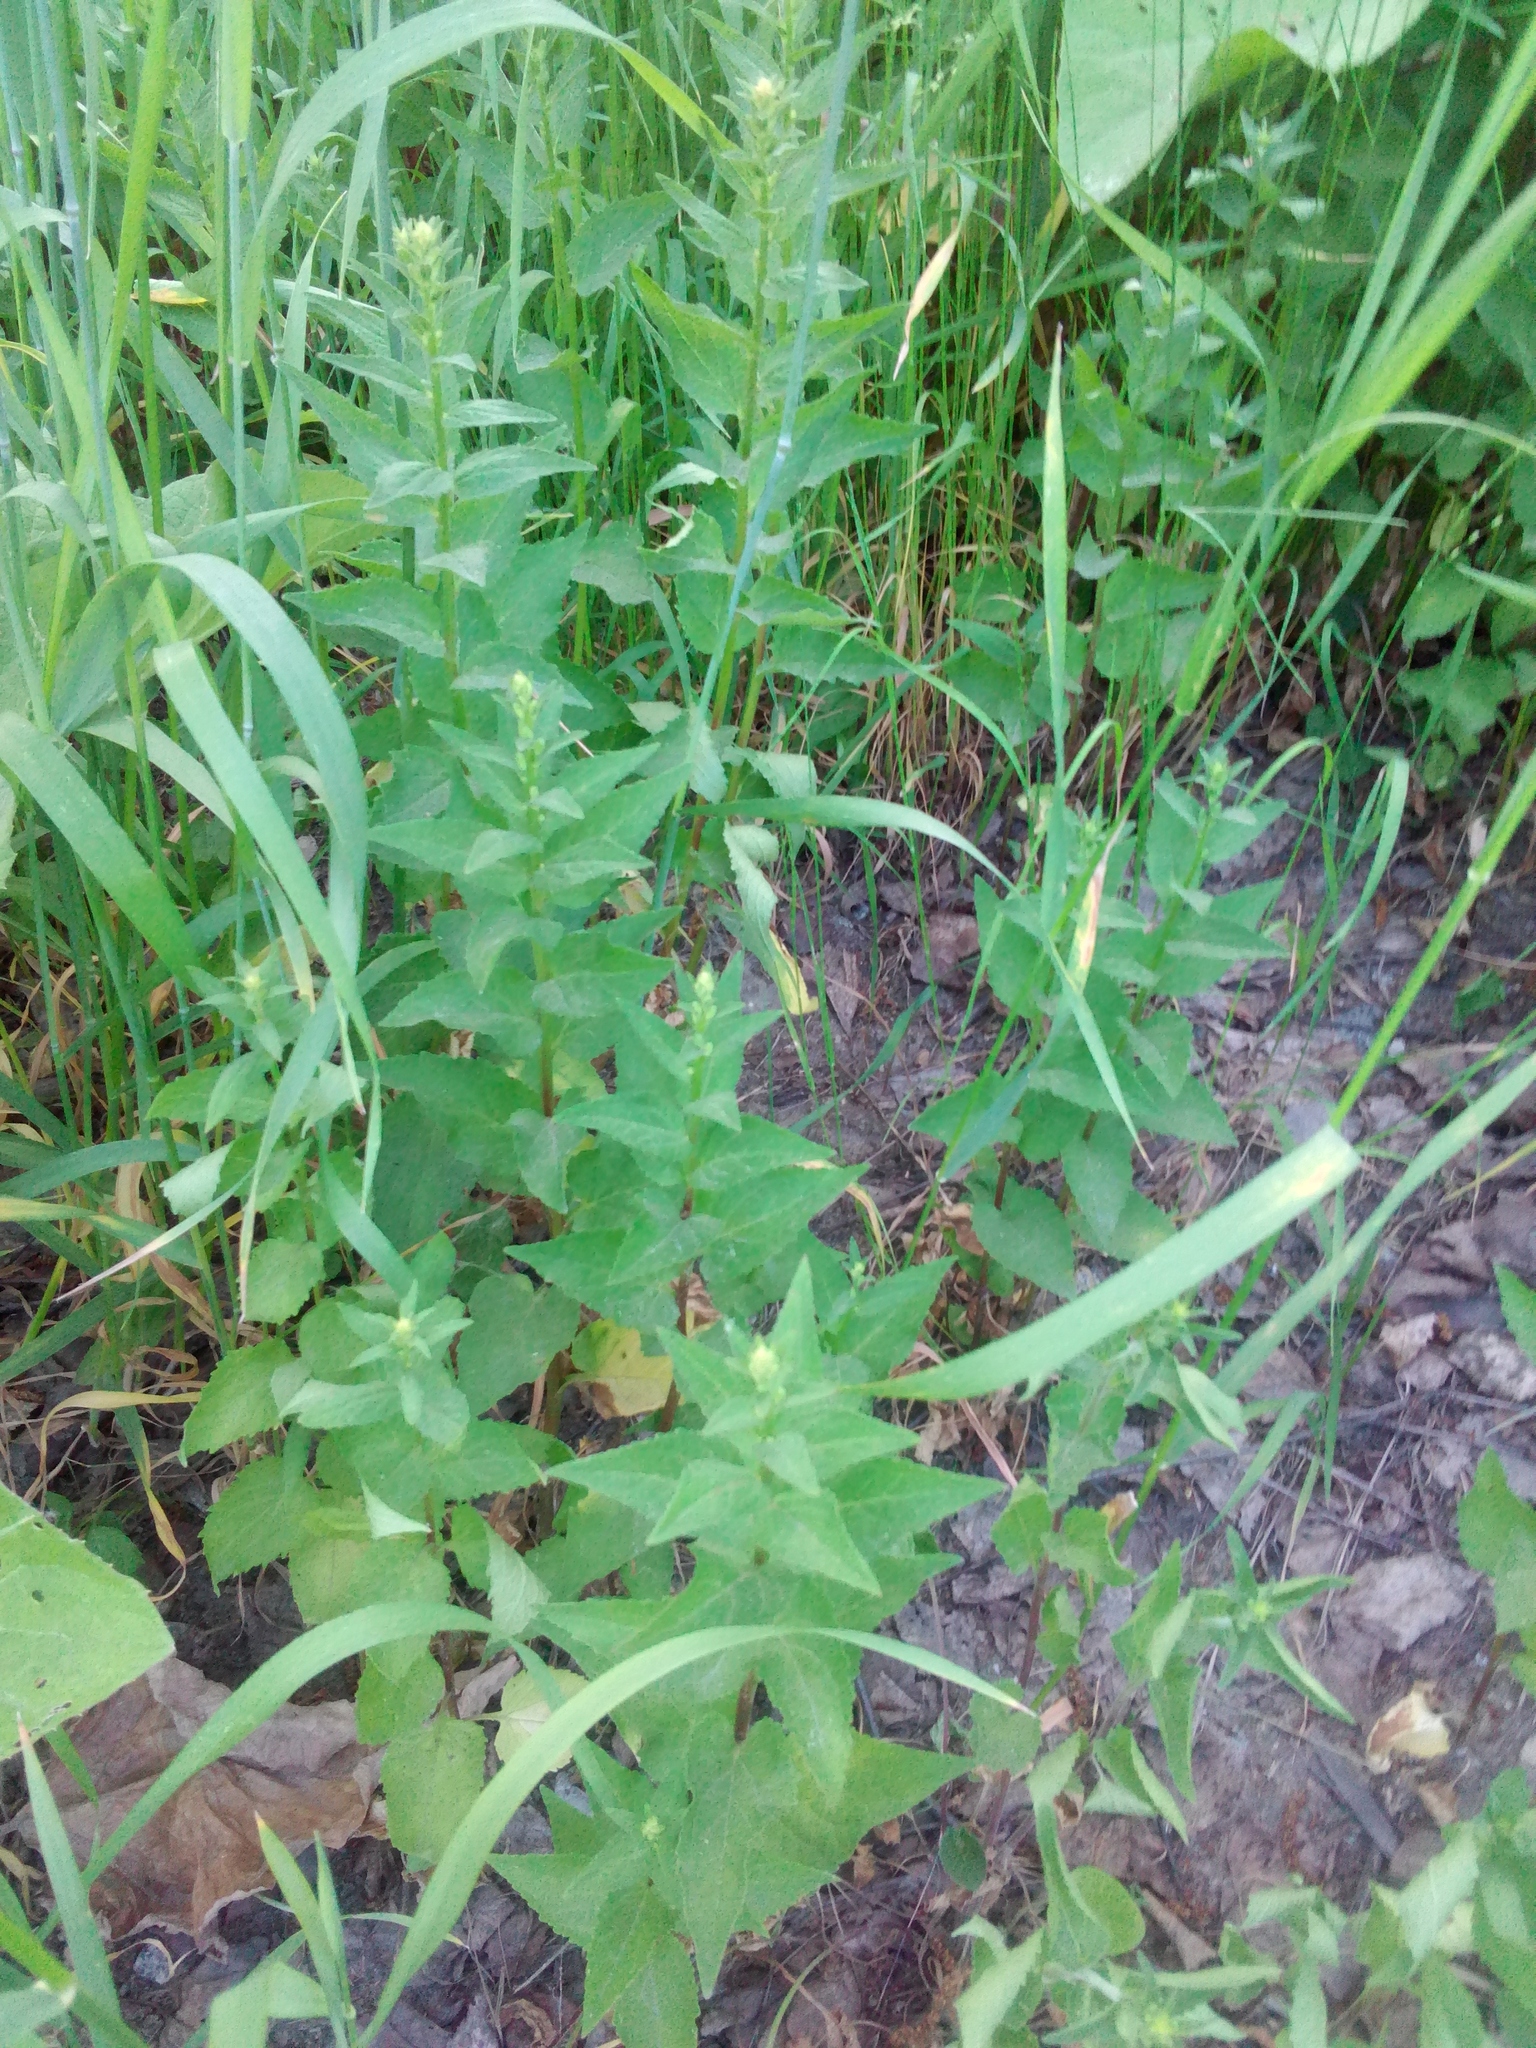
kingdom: Plantae
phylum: Tracheophyta
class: Magnoliopsida
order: Asterales
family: Campanulaceae
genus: Campanula
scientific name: Campanula rapunculoides
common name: Creeping bellflower
